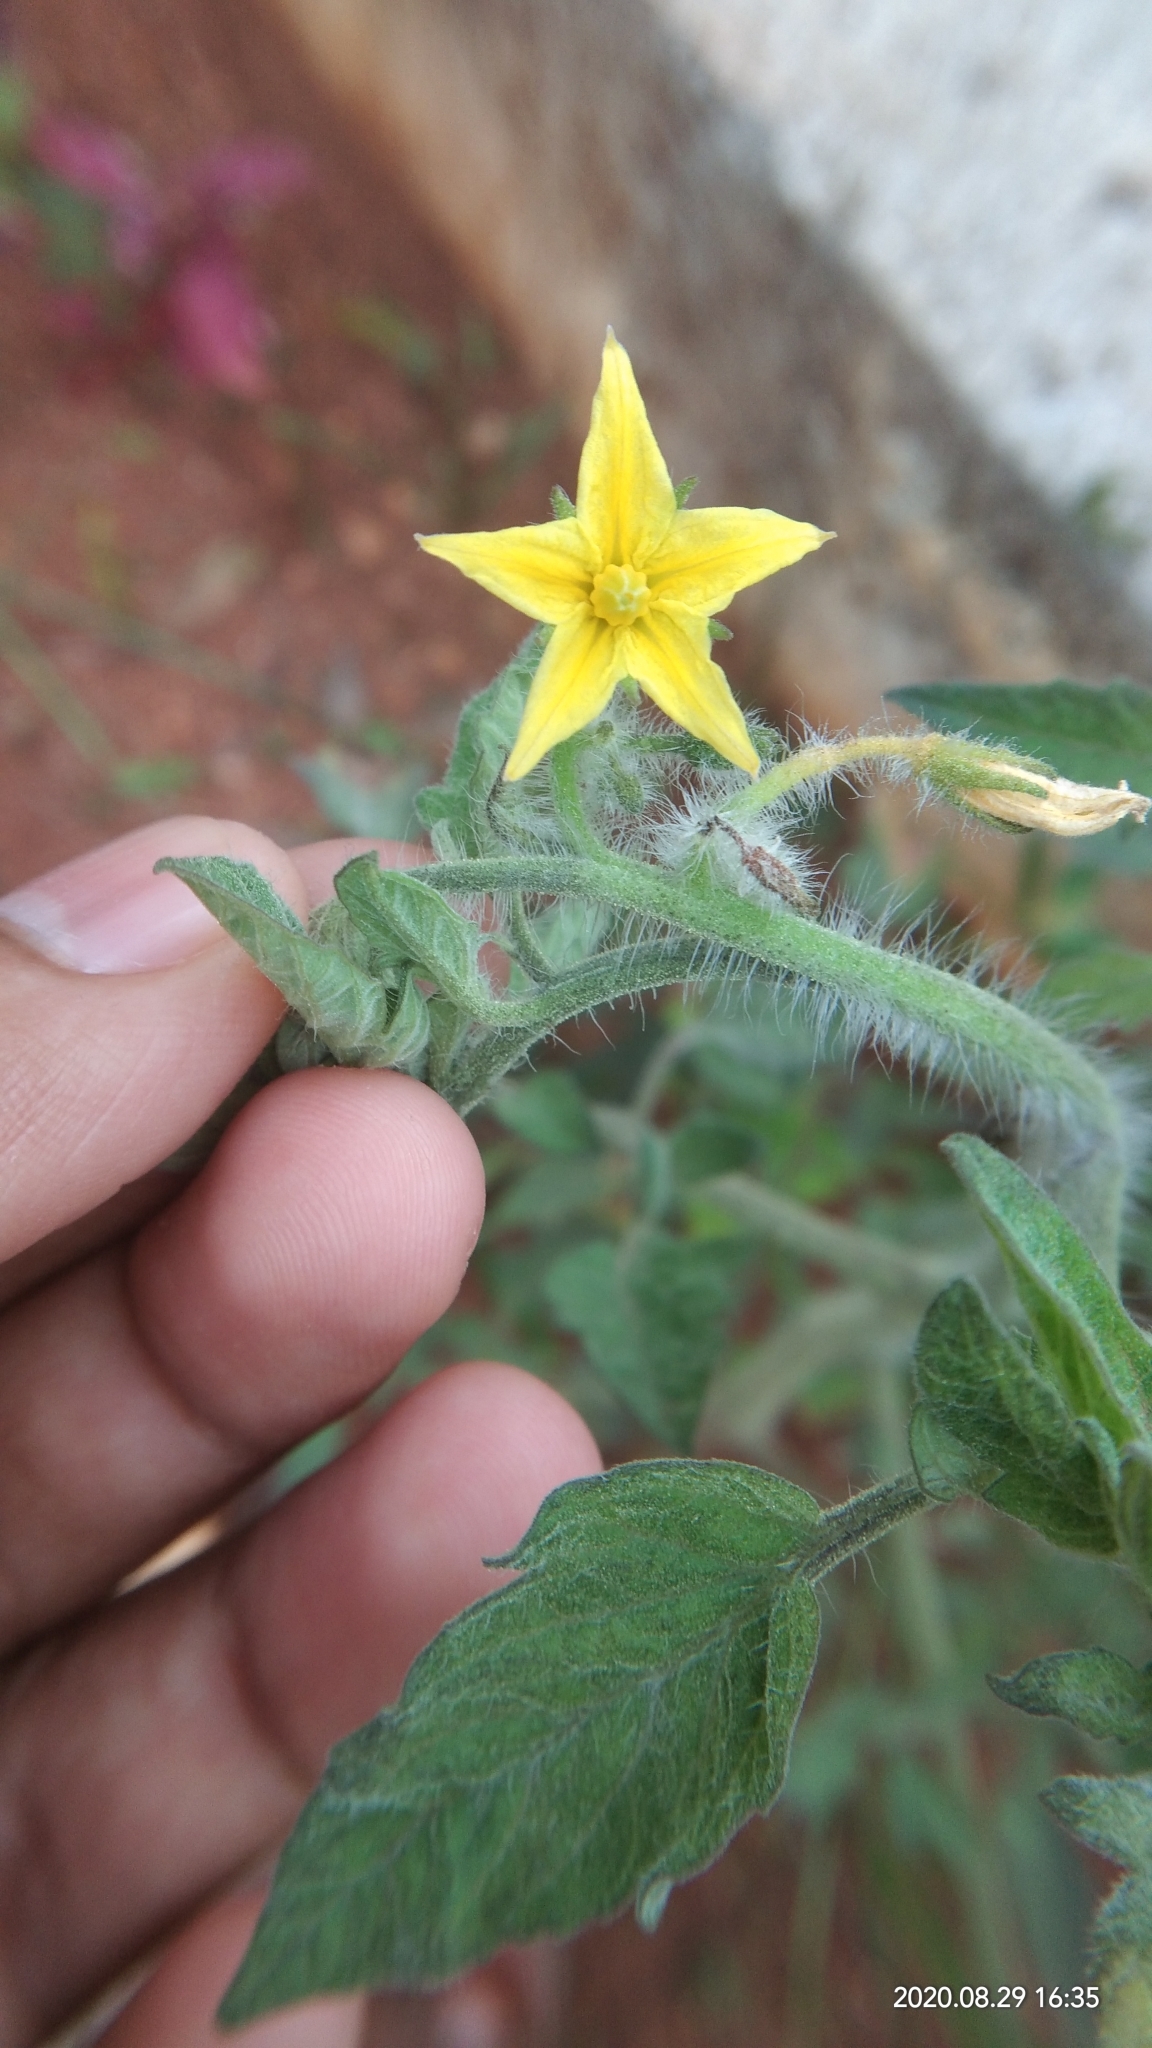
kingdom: Plantae
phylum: Tracheophyta
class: Magnoliopsida
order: Solanales
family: Solanaceae
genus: Solanum
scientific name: Solanum lycopersicum
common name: Garden tomato
